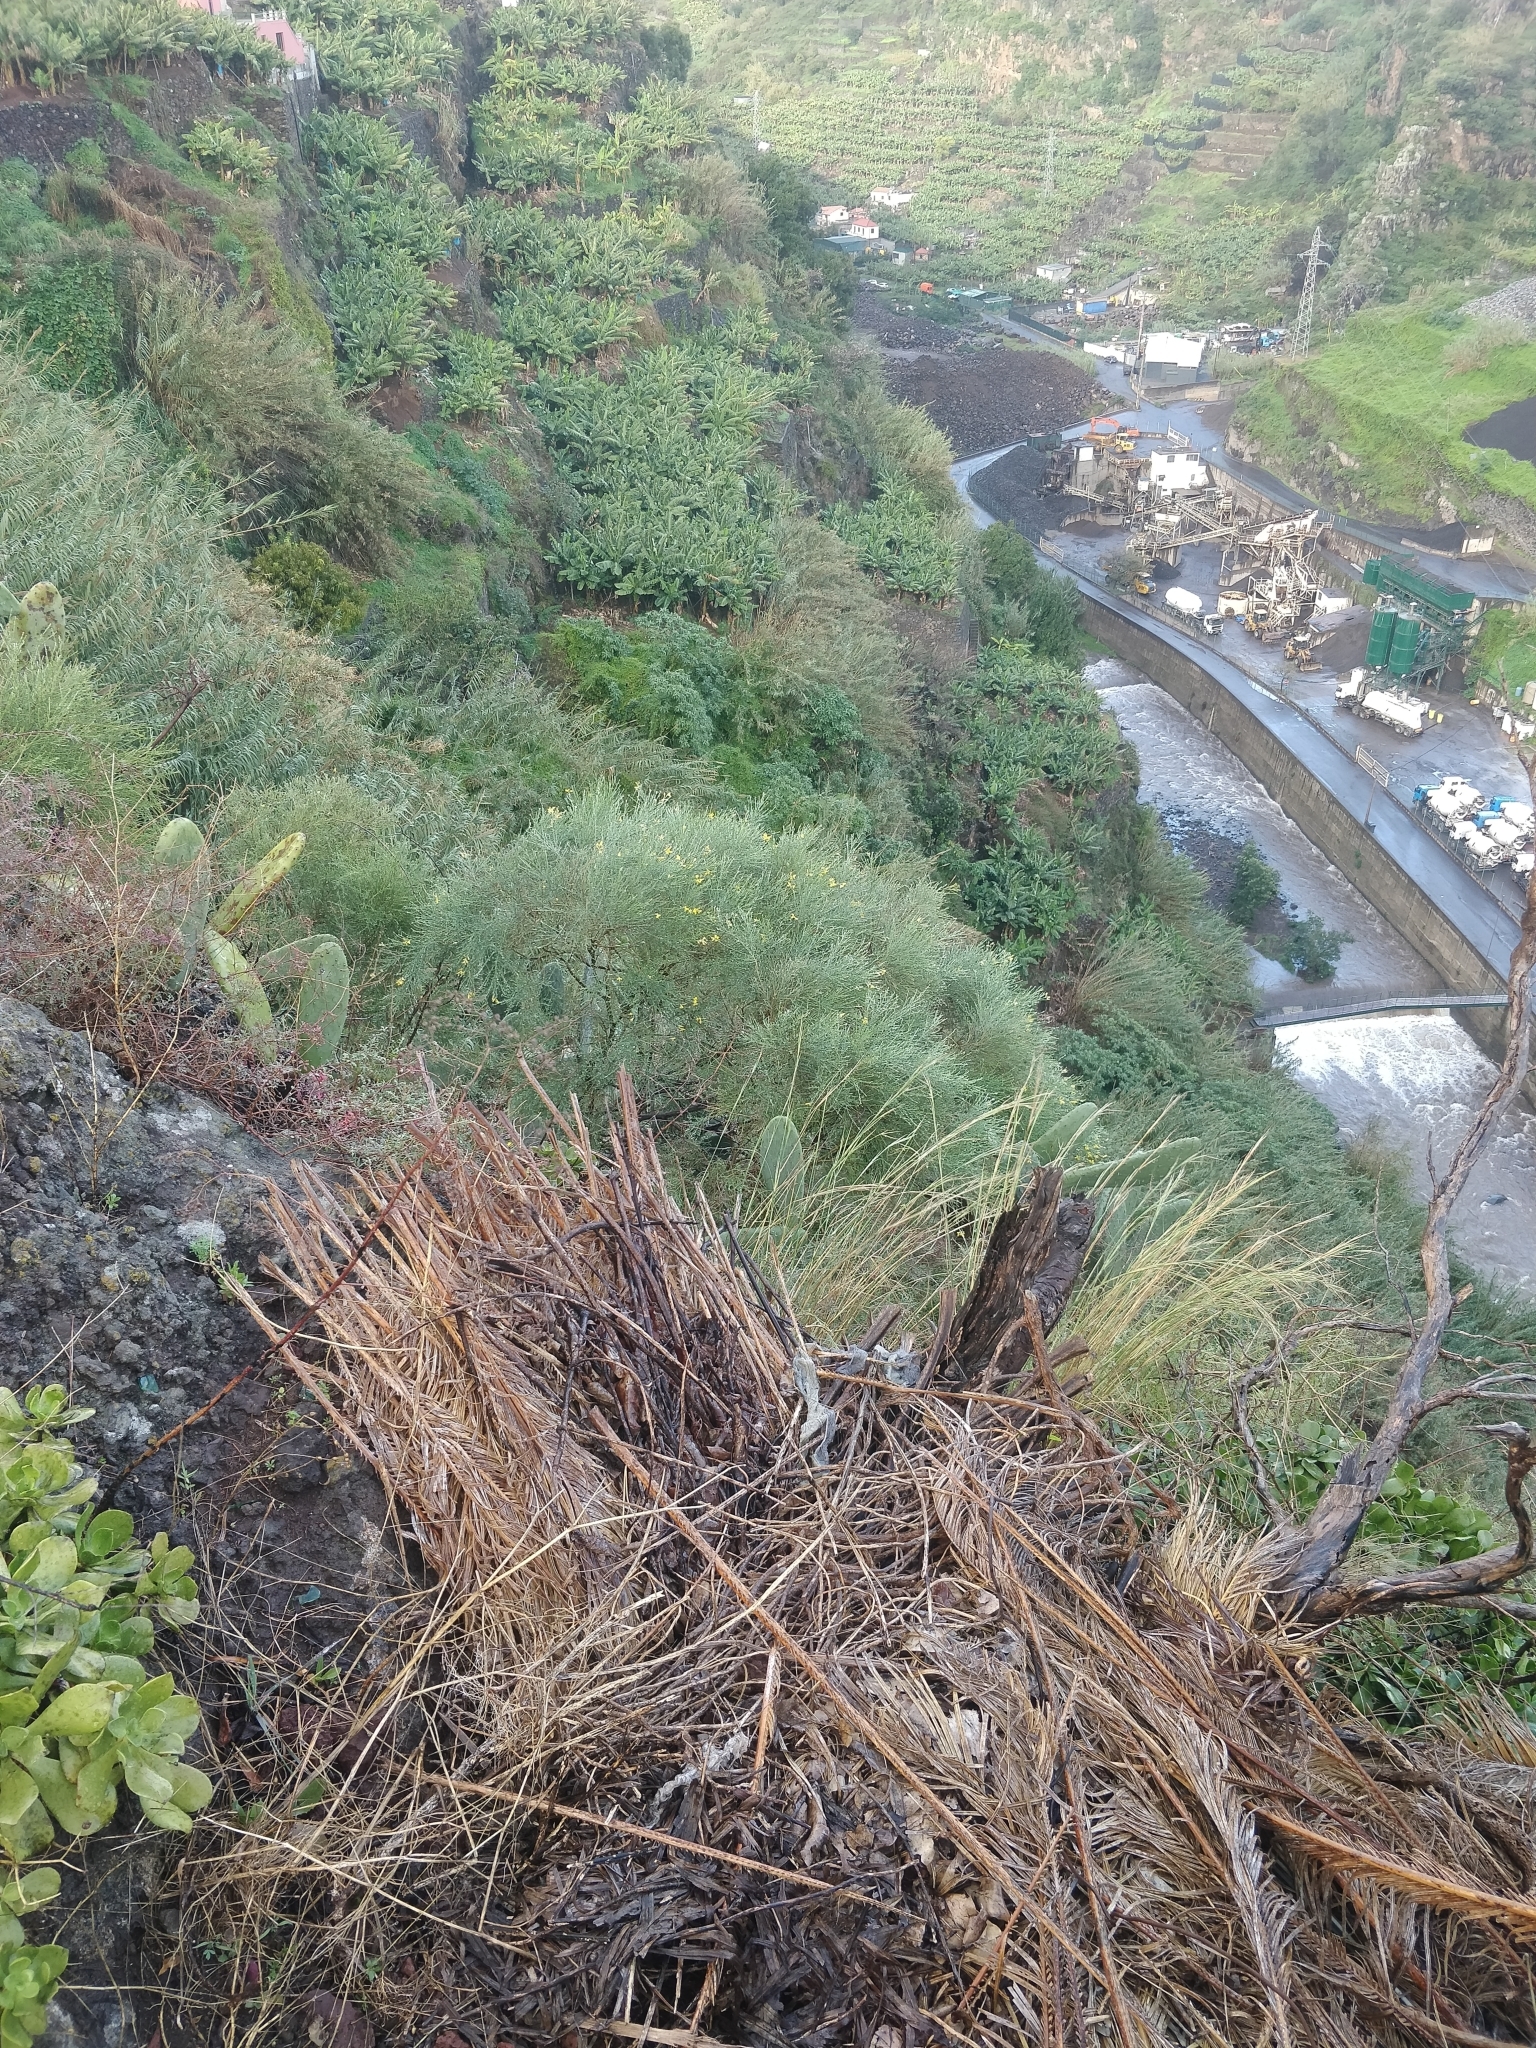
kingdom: Plantae
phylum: Tracheophyta
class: Magnoliopsida
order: Fabales
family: Fabaceae
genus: Genista
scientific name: Genista tenera
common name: Madeira broom
